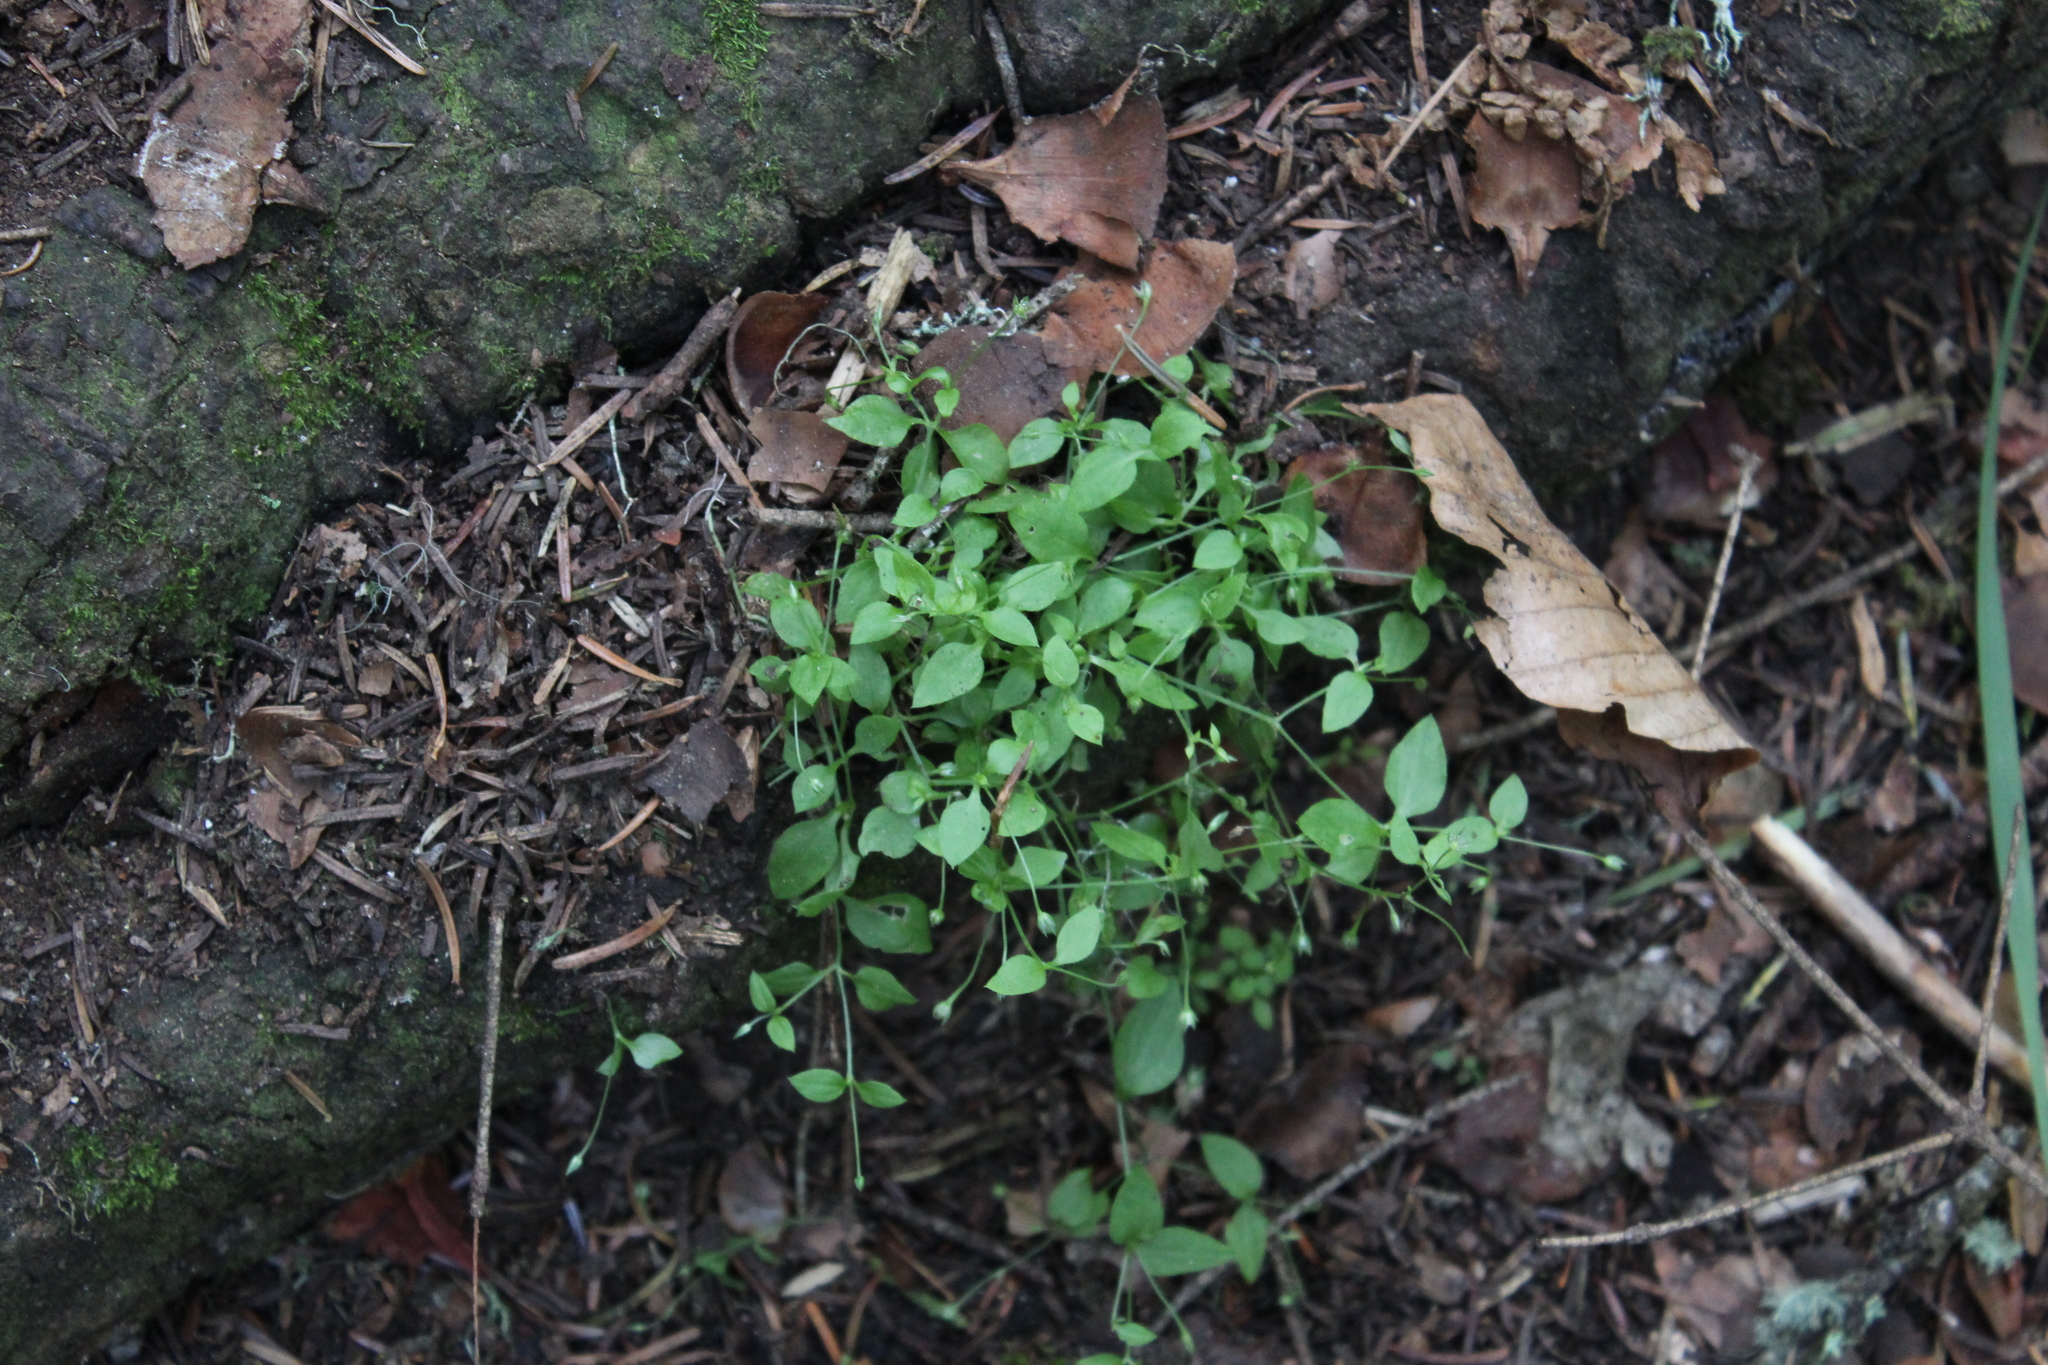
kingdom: Plantae
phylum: Tracheophyta
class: Magnoliopsida
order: Caryophyllales
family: Caryophyllaceae
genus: Moehringia
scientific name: Moehringia trinervia
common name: Three-nerved sandwort
